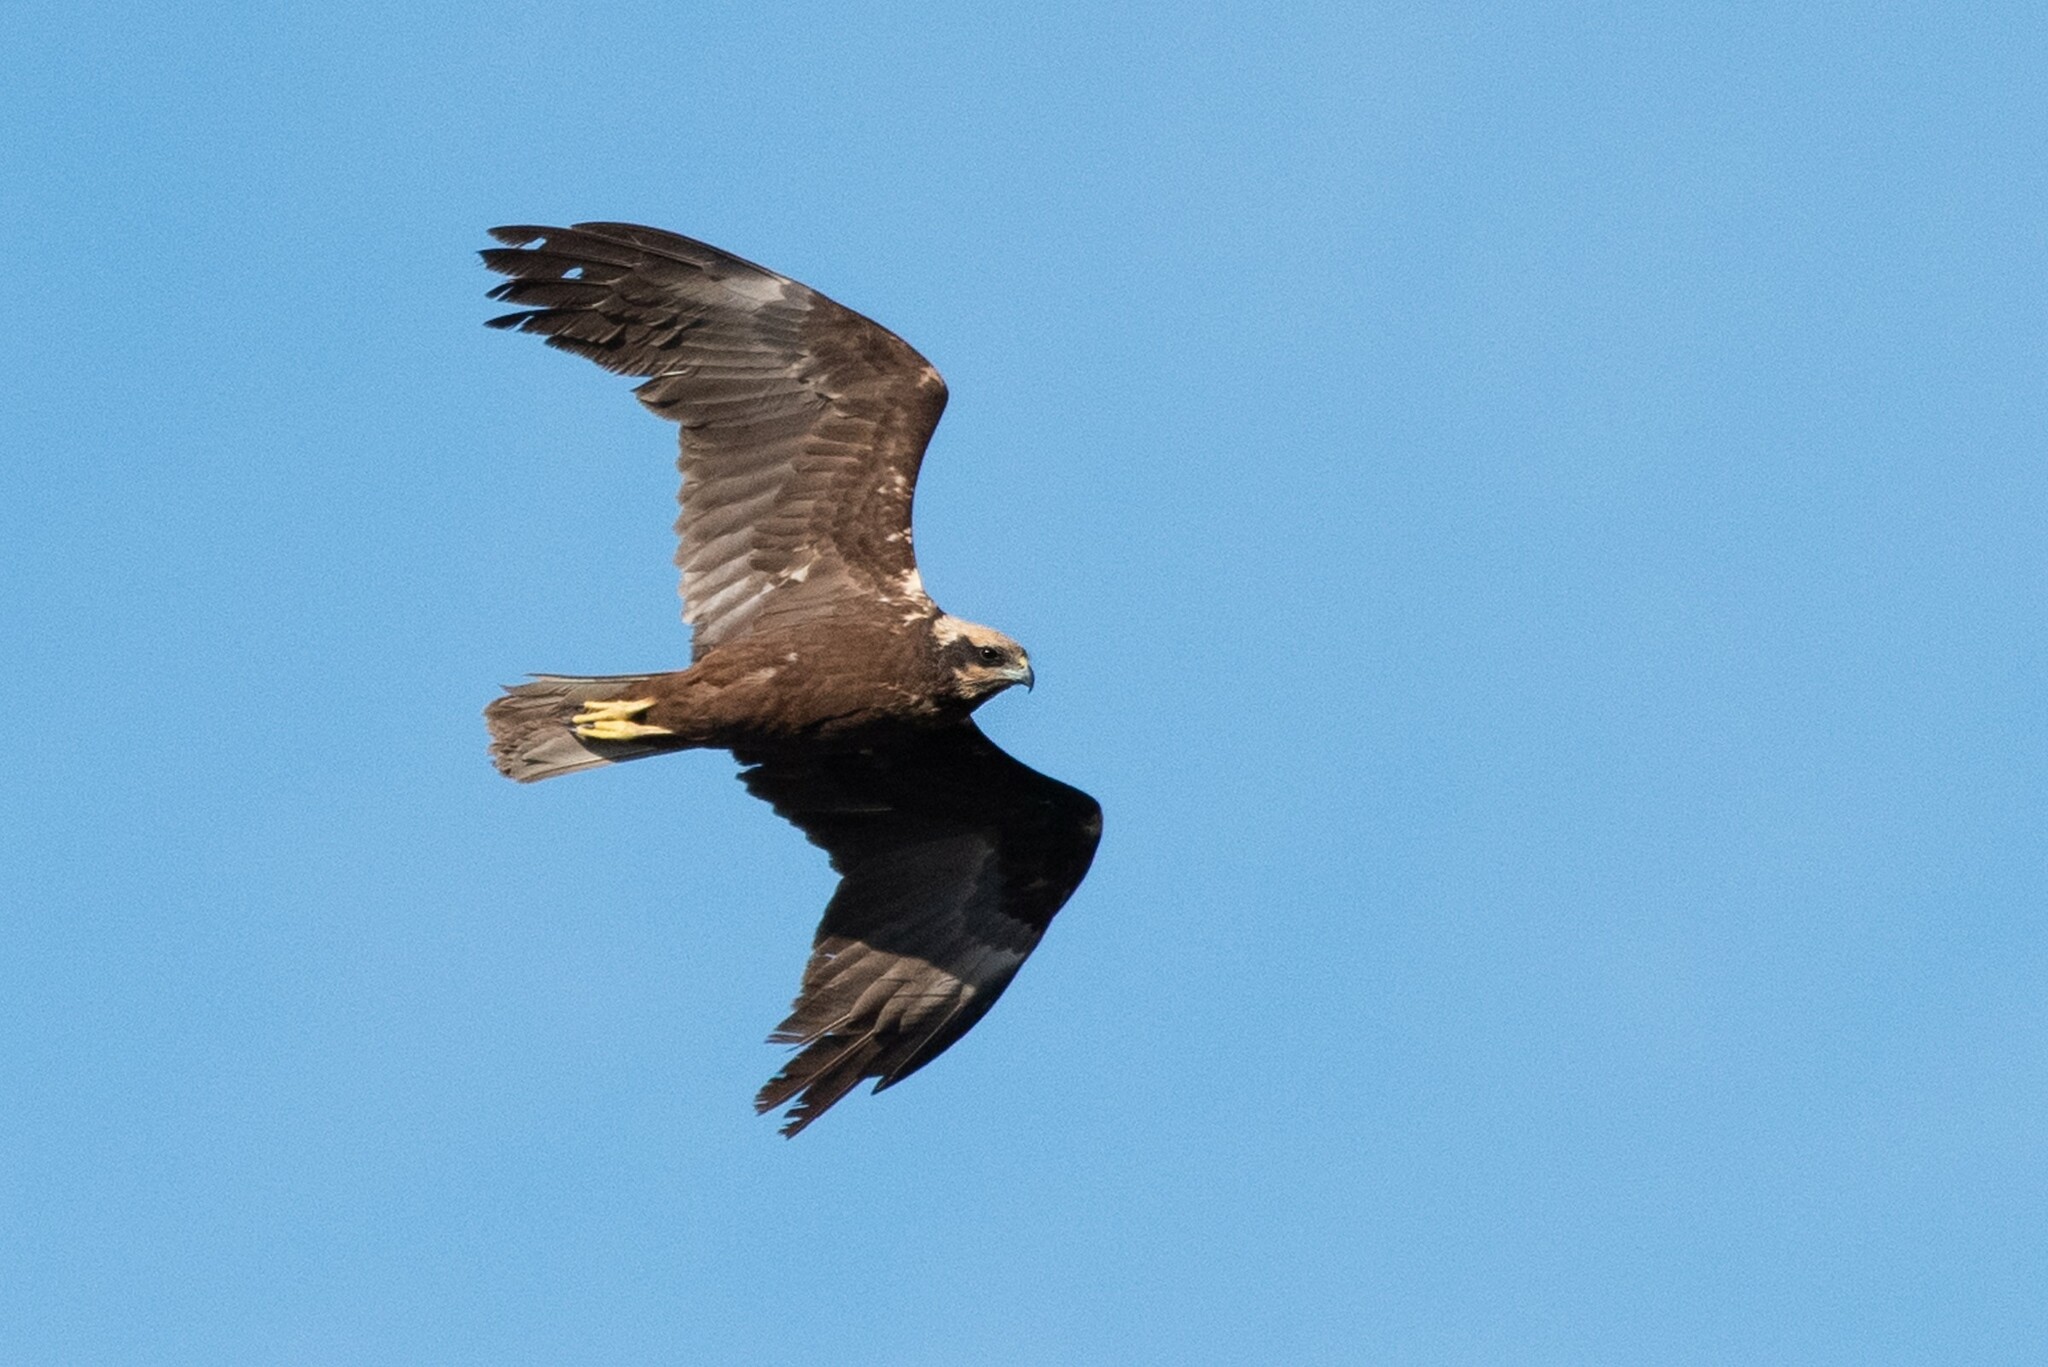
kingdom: Animalia
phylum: Chordata
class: Aves
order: Accipitriformes
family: Accipitridae
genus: Circus
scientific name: Circus aeruginosus
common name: Western marsh harrier
